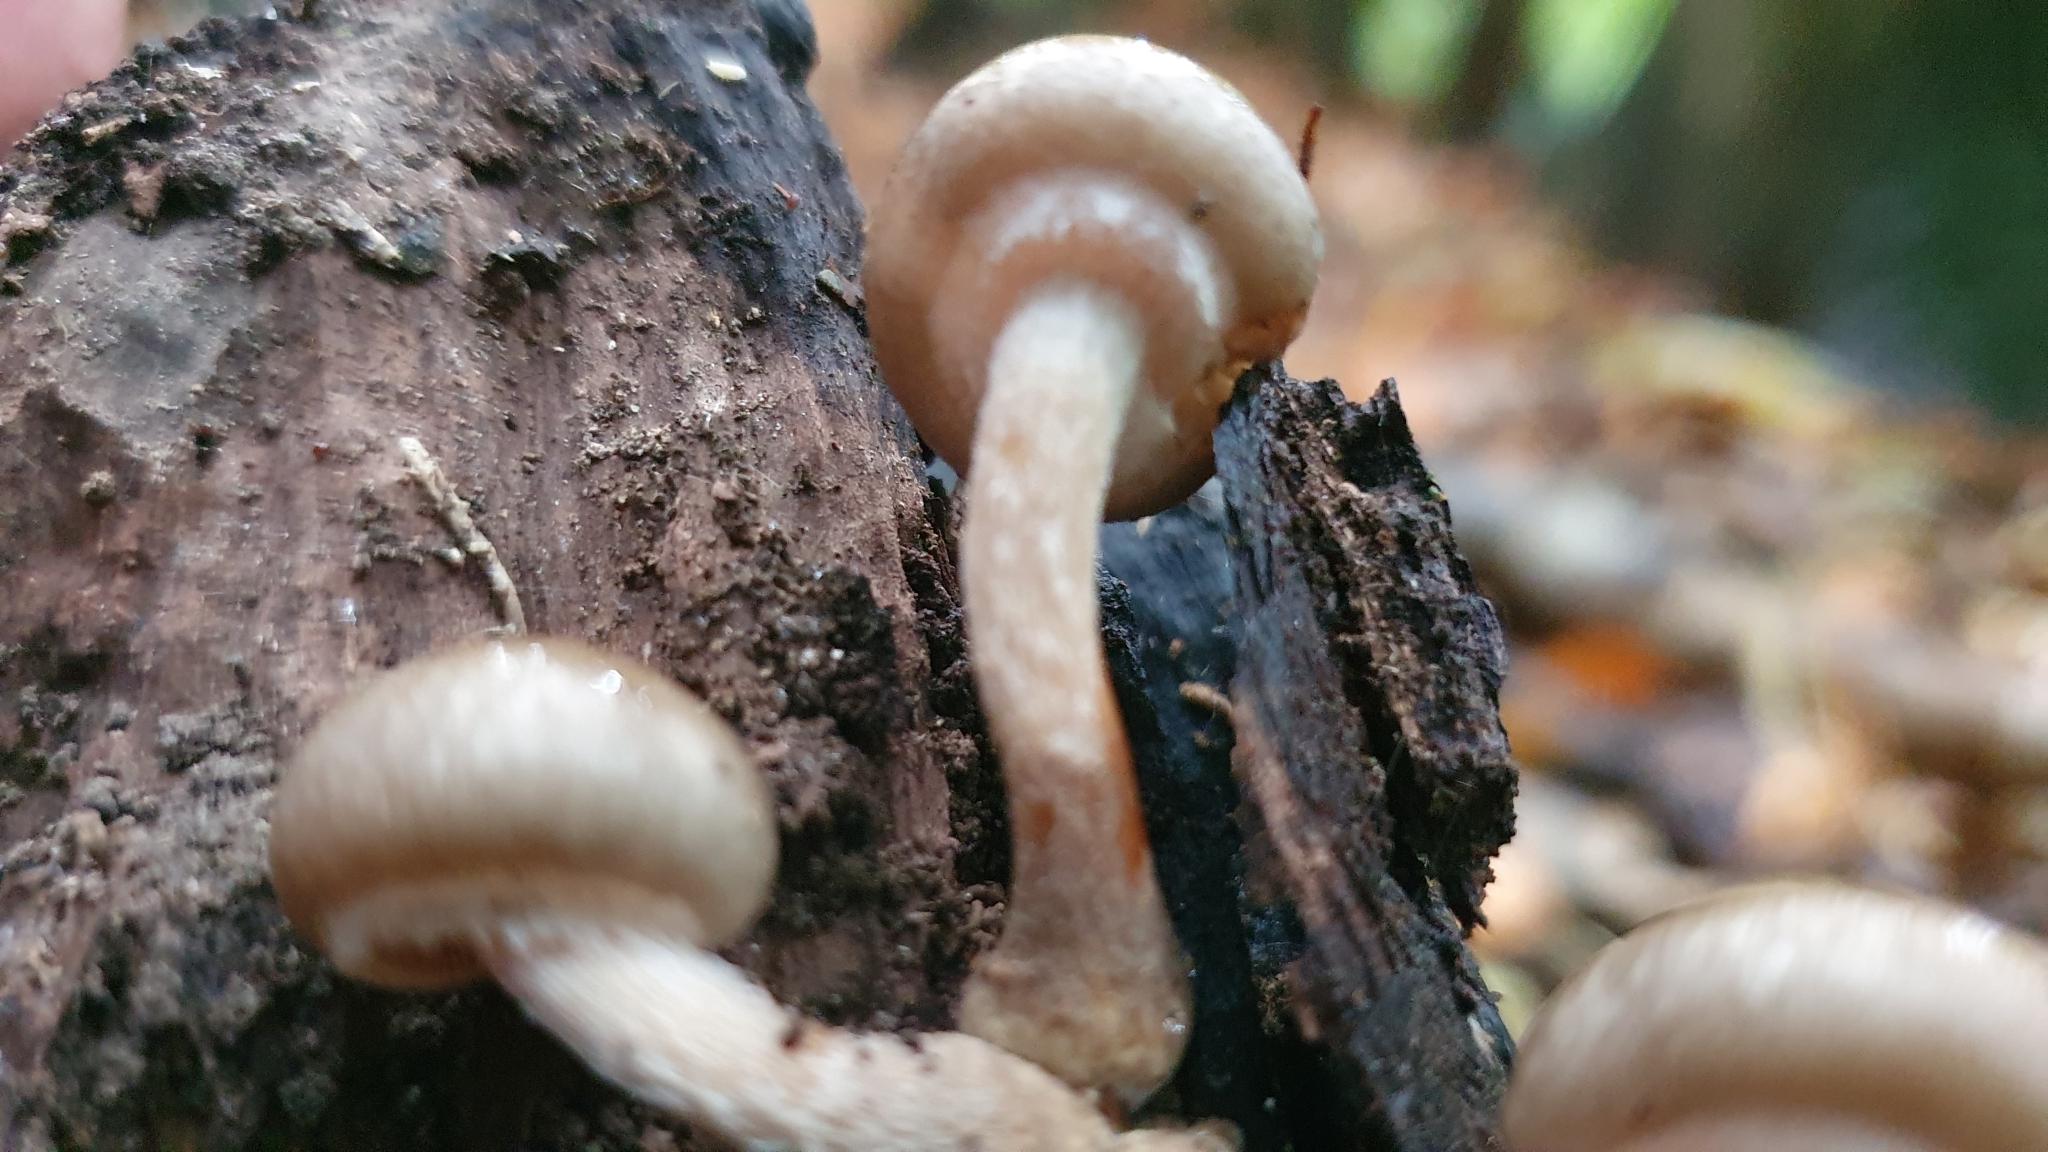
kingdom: Fungi
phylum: Basidiomycota
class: Agaricomycetes
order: Agaricales
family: Physalacriaceae
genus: Armillaria
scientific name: Armillaria novae-zelandiae
